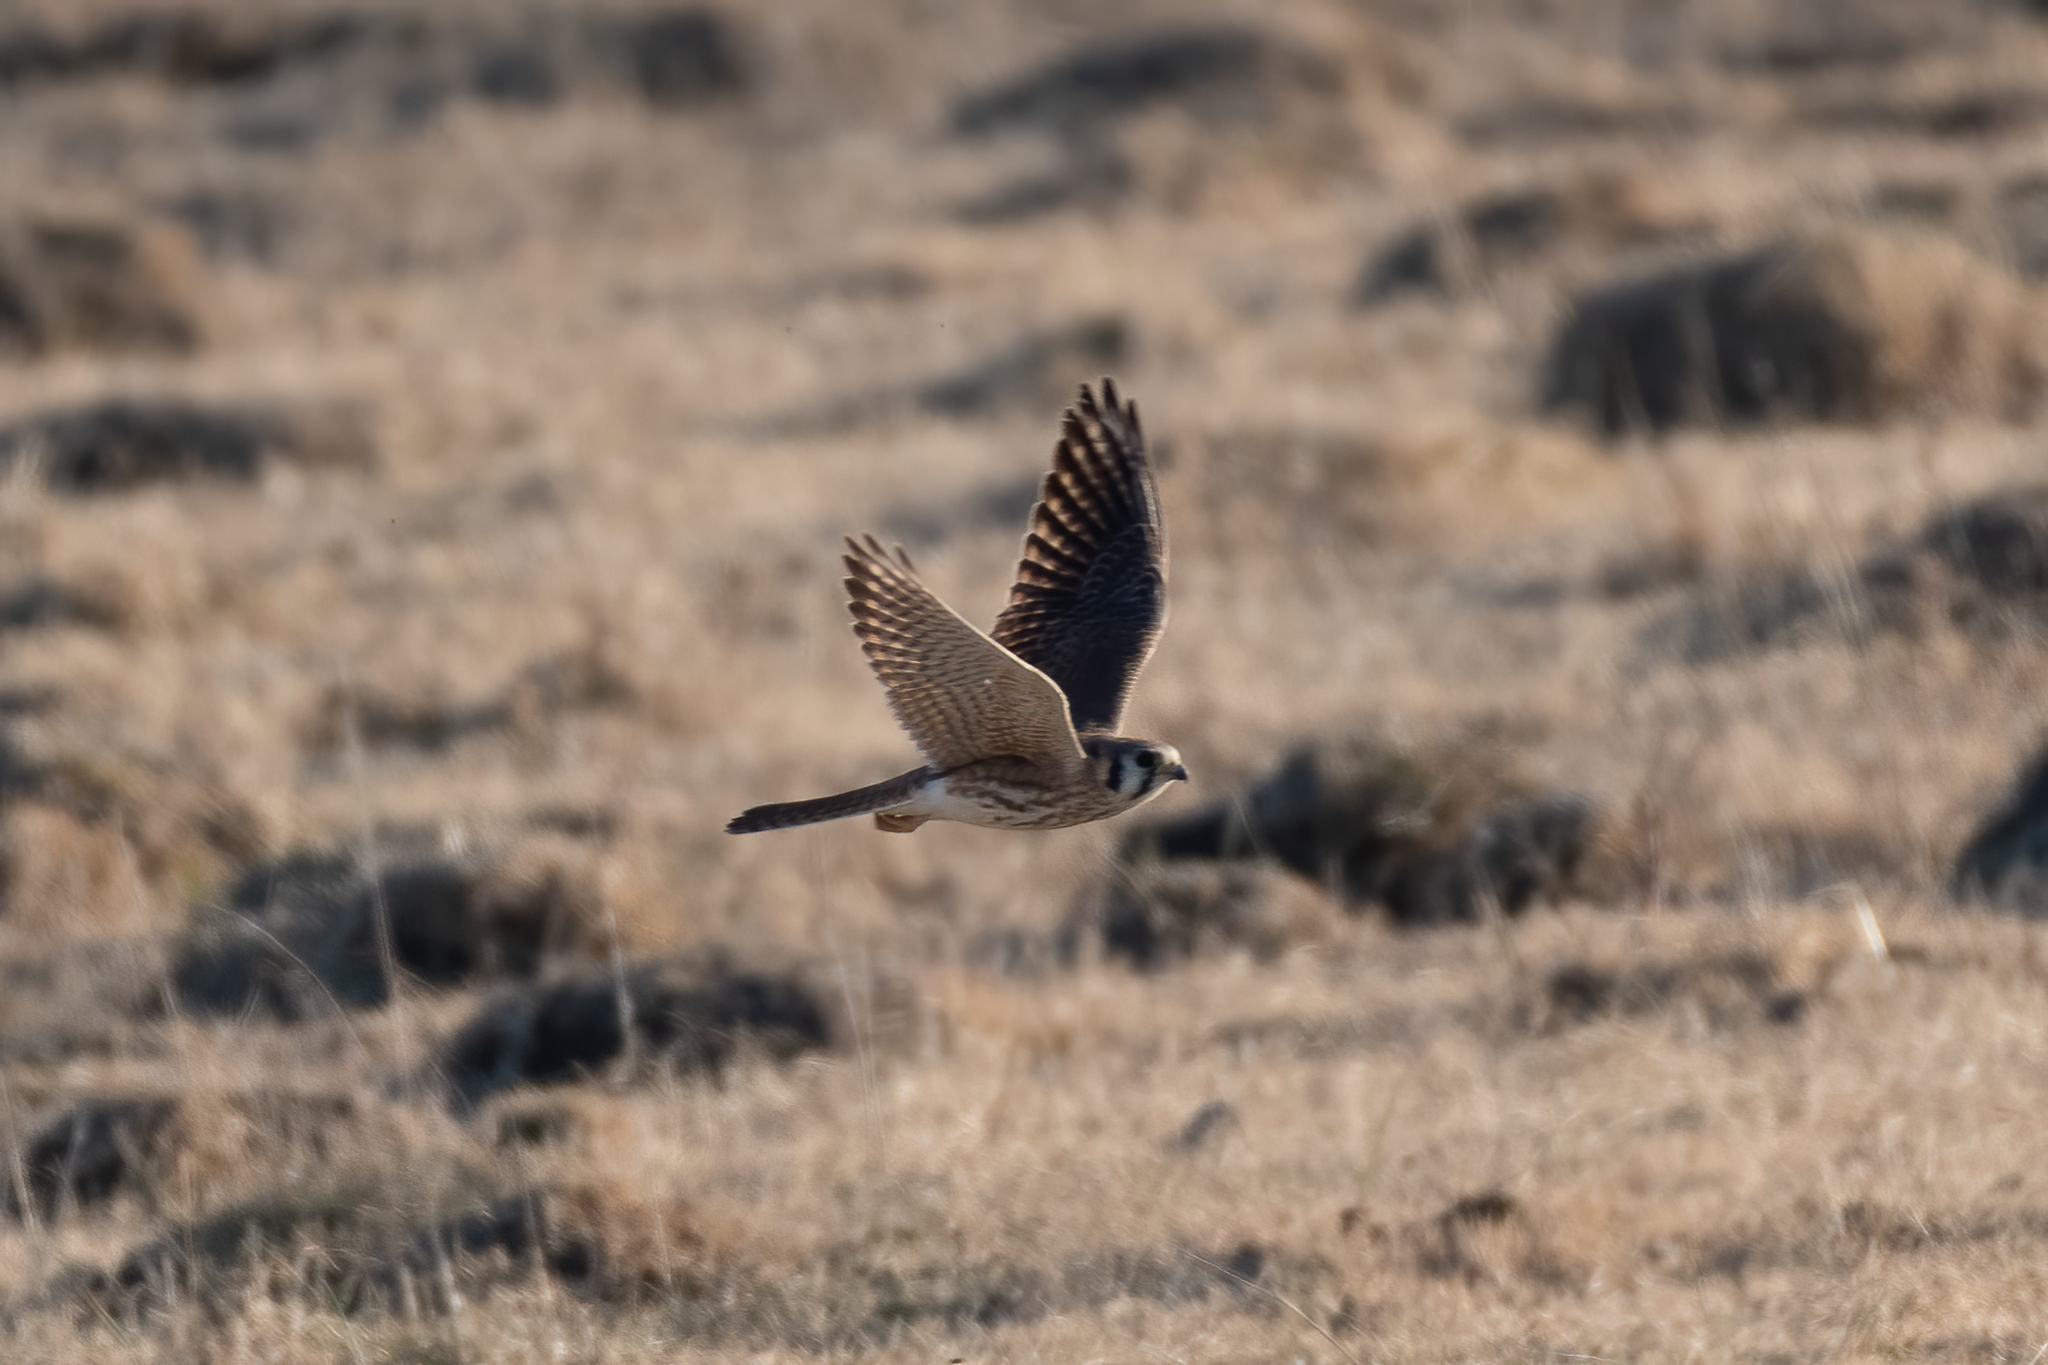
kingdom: Animalia
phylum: Chordata
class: Aves
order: Falconiformes
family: Falconidae
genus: Falco
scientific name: Falco sparverius
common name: American kestrel
